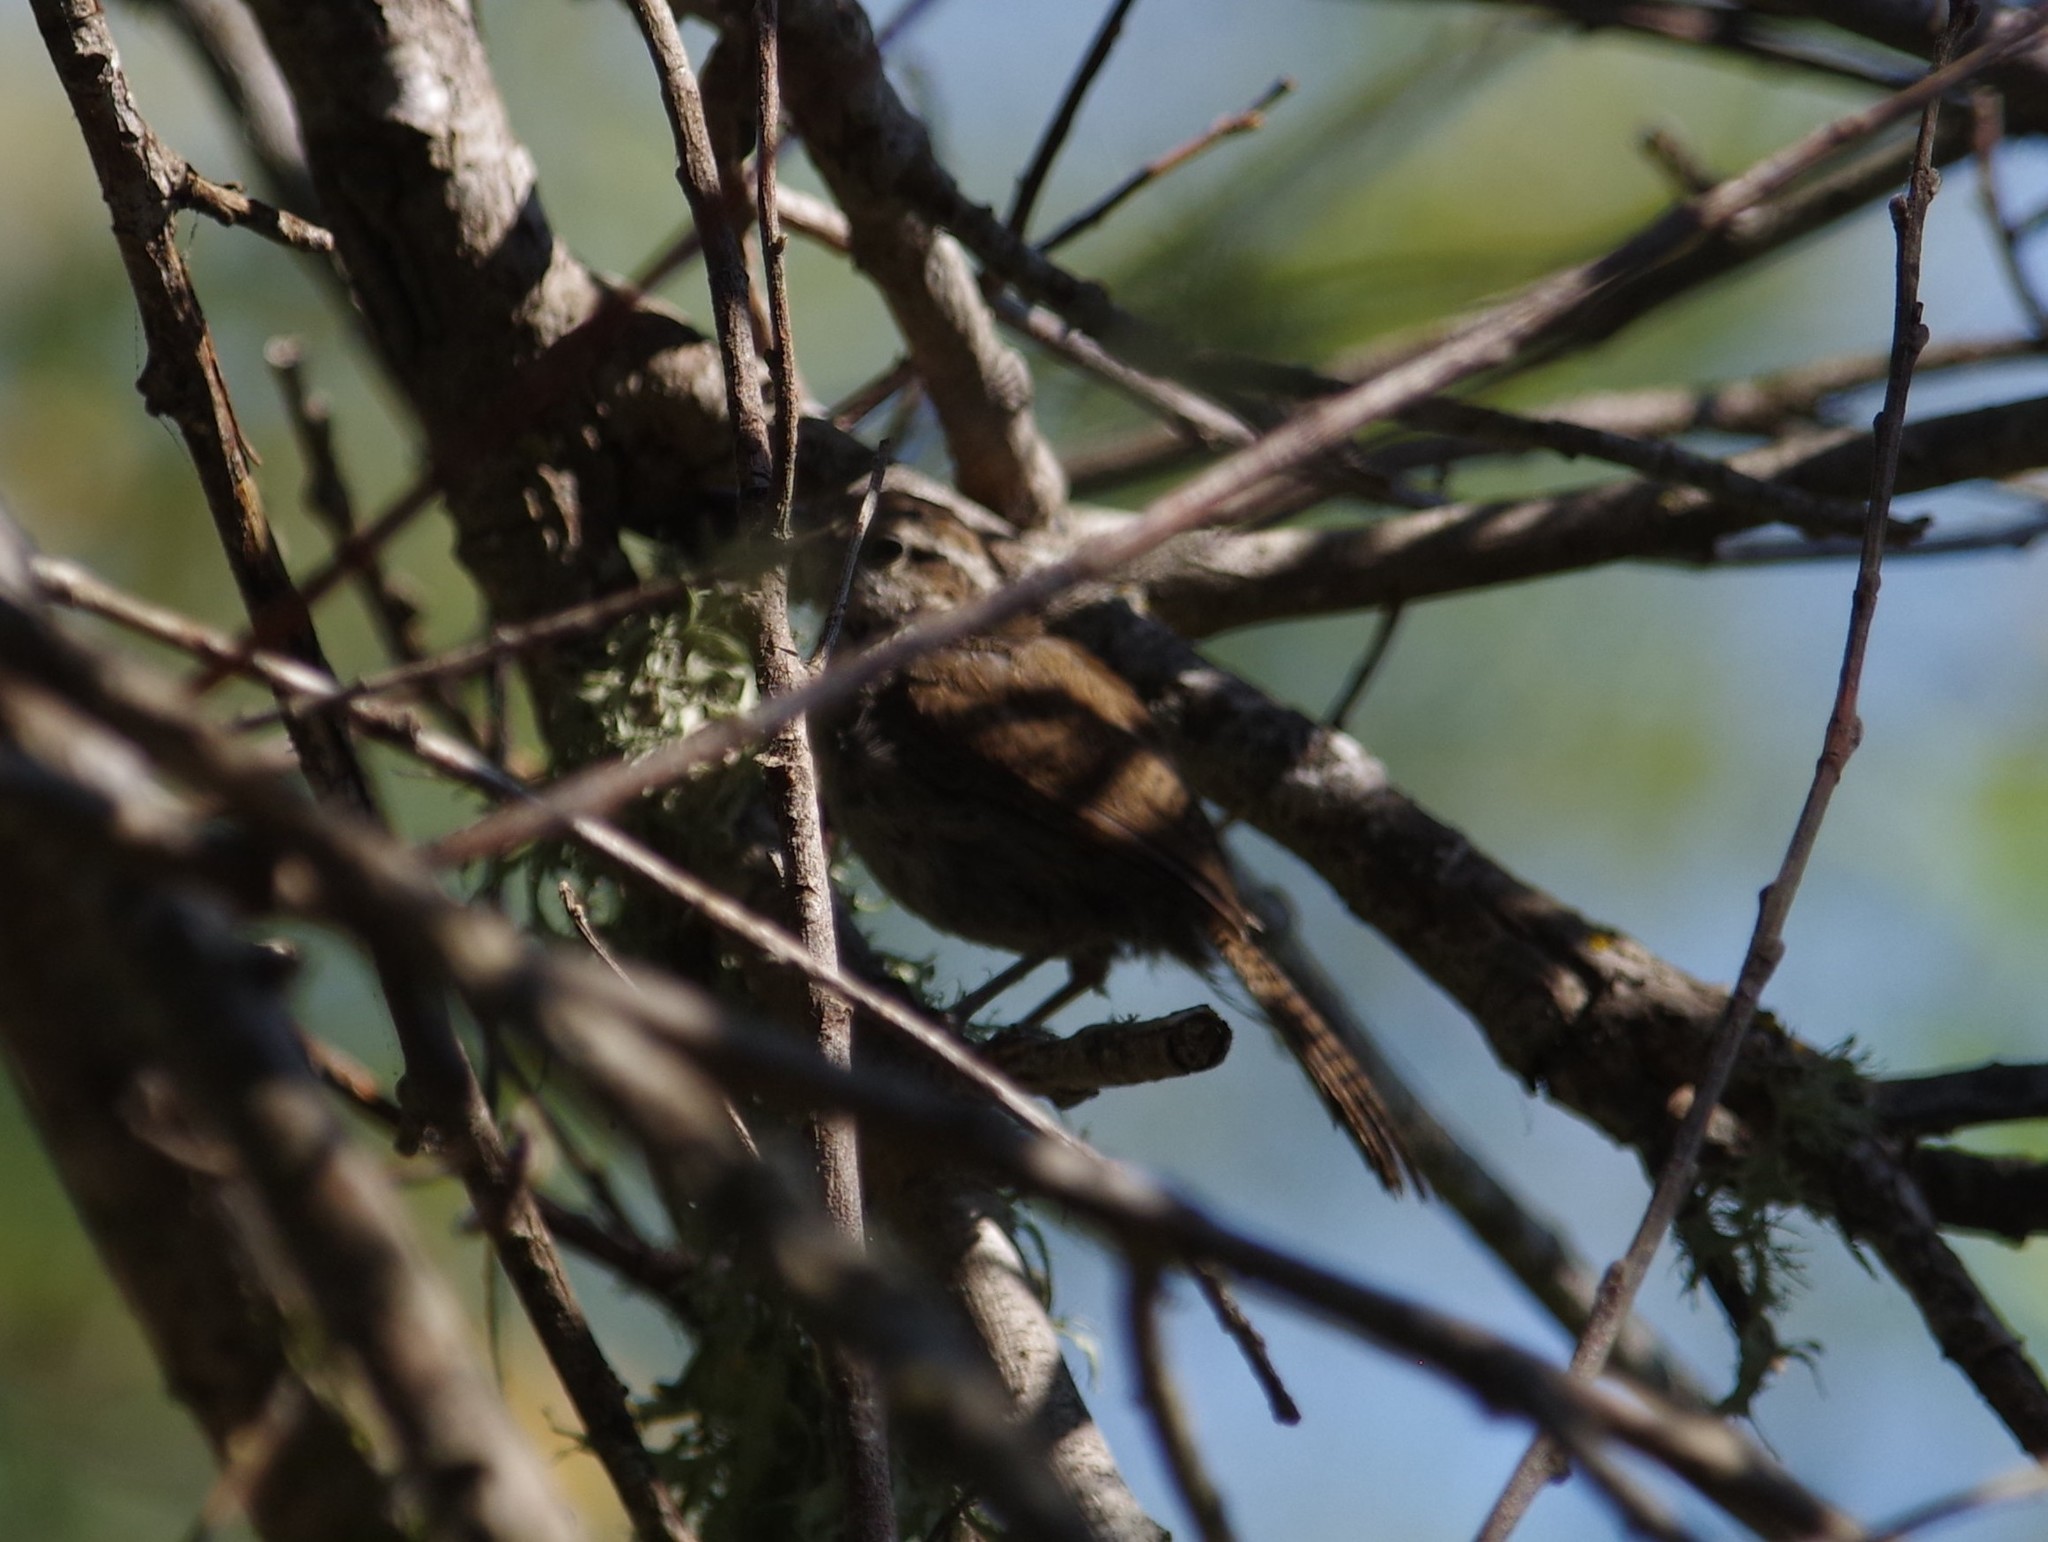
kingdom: Animalia
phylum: Chordata
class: Aves
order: Passeriformes
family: Troglodytidae
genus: Thryomanes
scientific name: Thryomanes bewickii
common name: Bewick's wren
